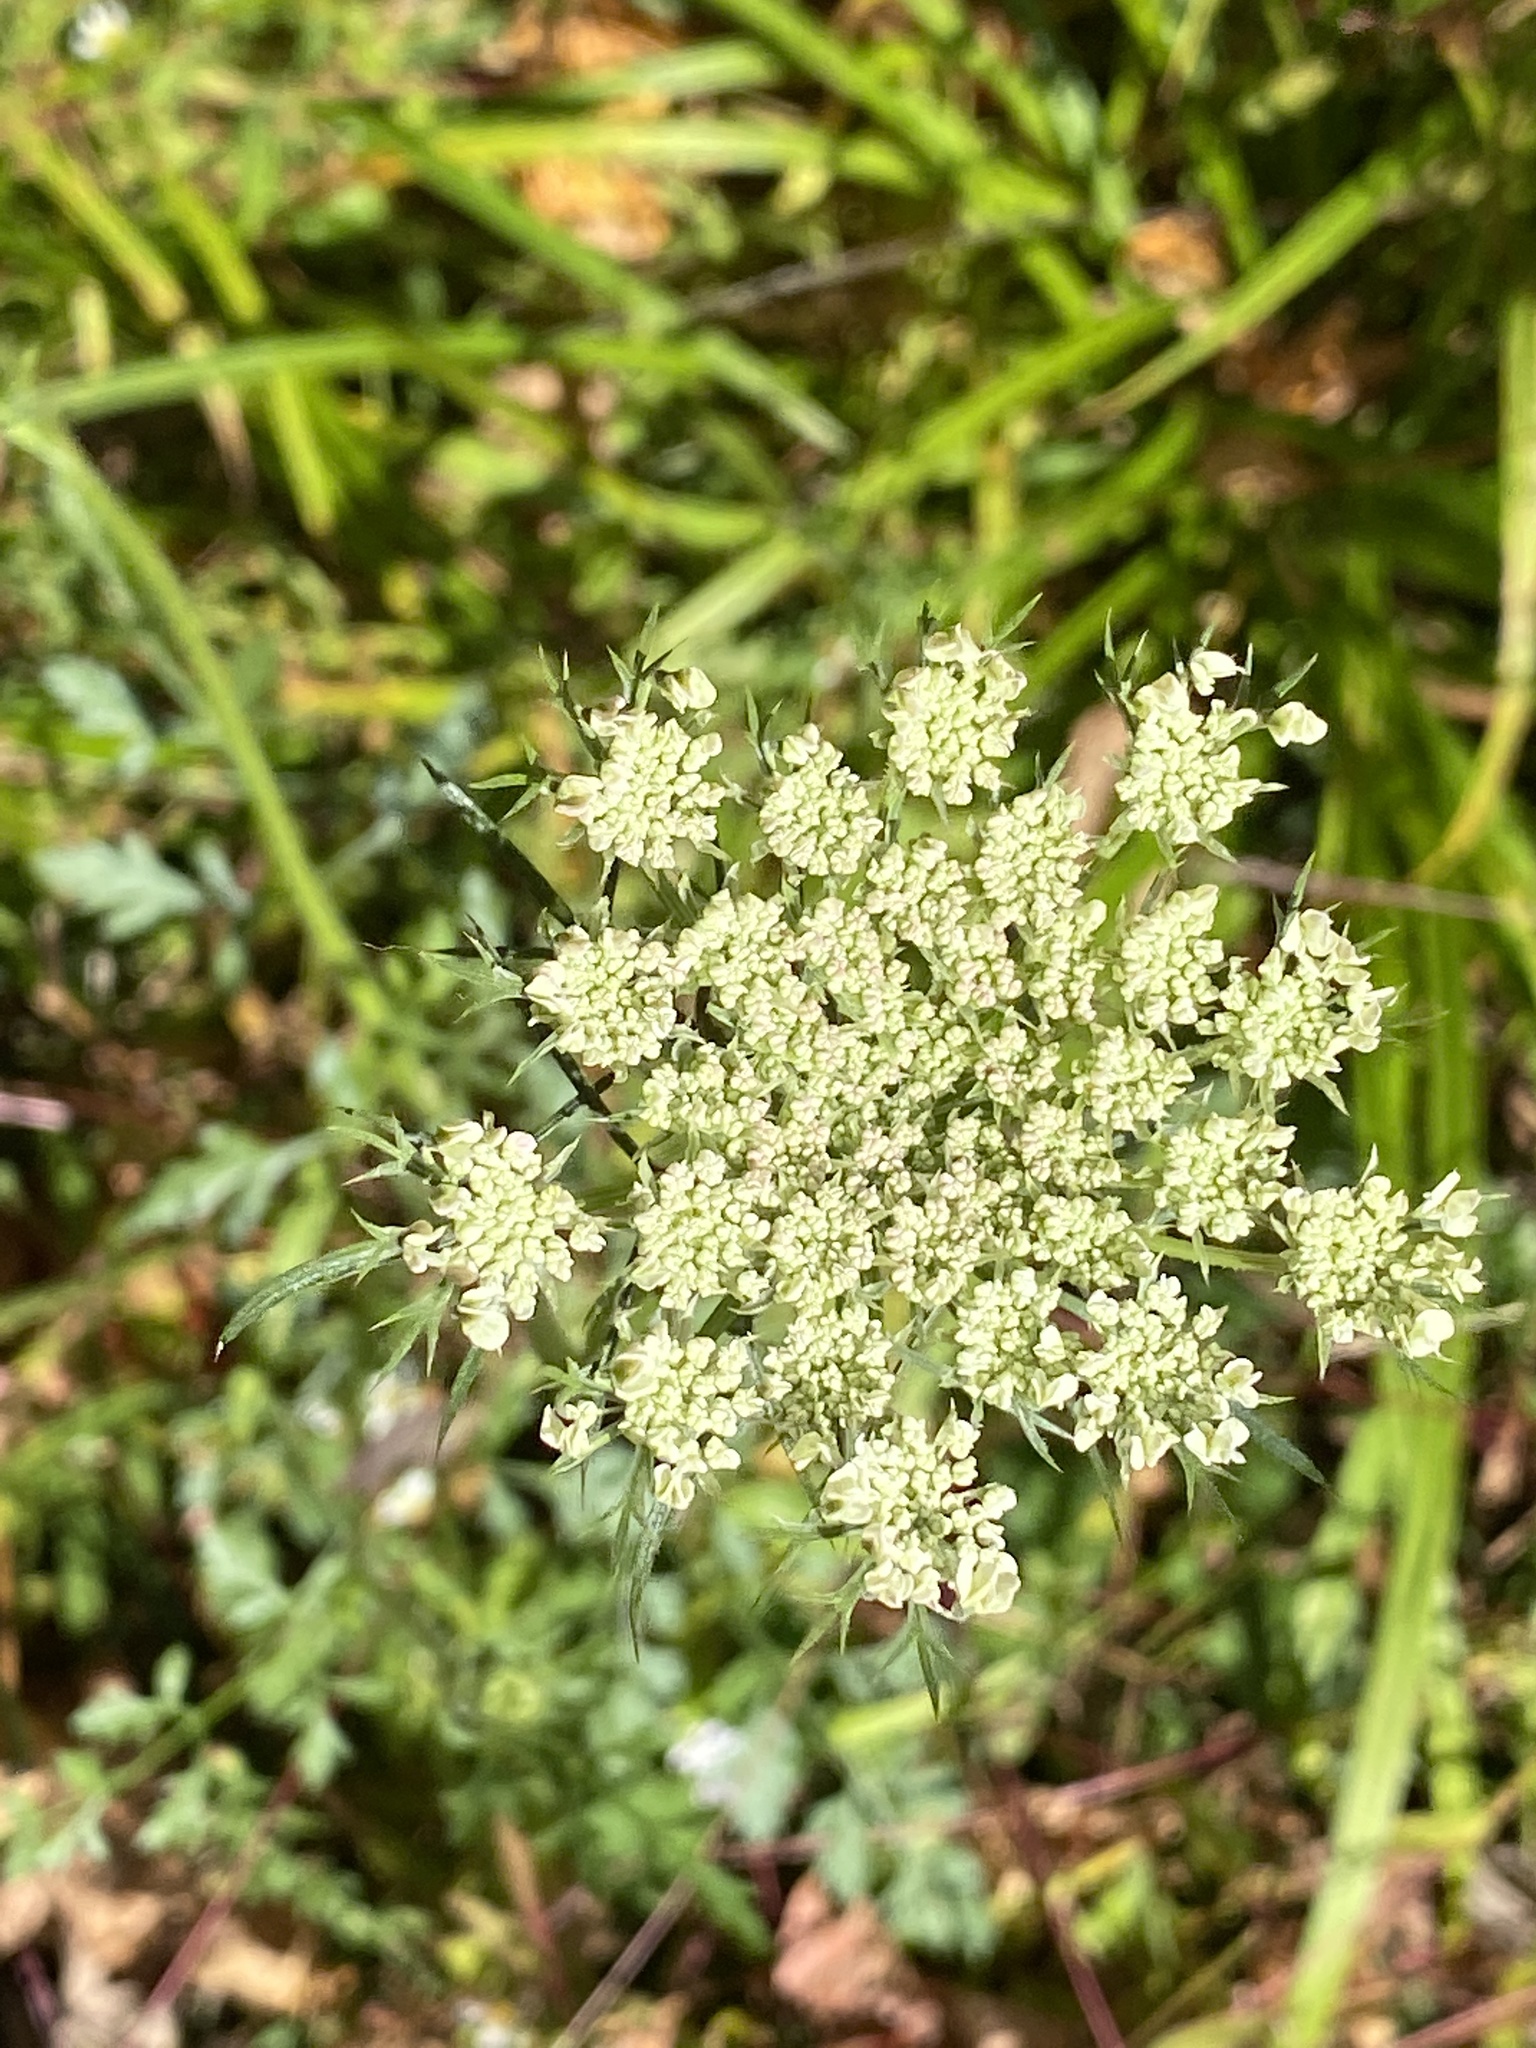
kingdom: Plantae
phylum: Tracheophyta
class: Magnoliopsida
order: Apiales
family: Apiaceae
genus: Daucus
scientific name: Daucus carota
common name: Wild carrot
